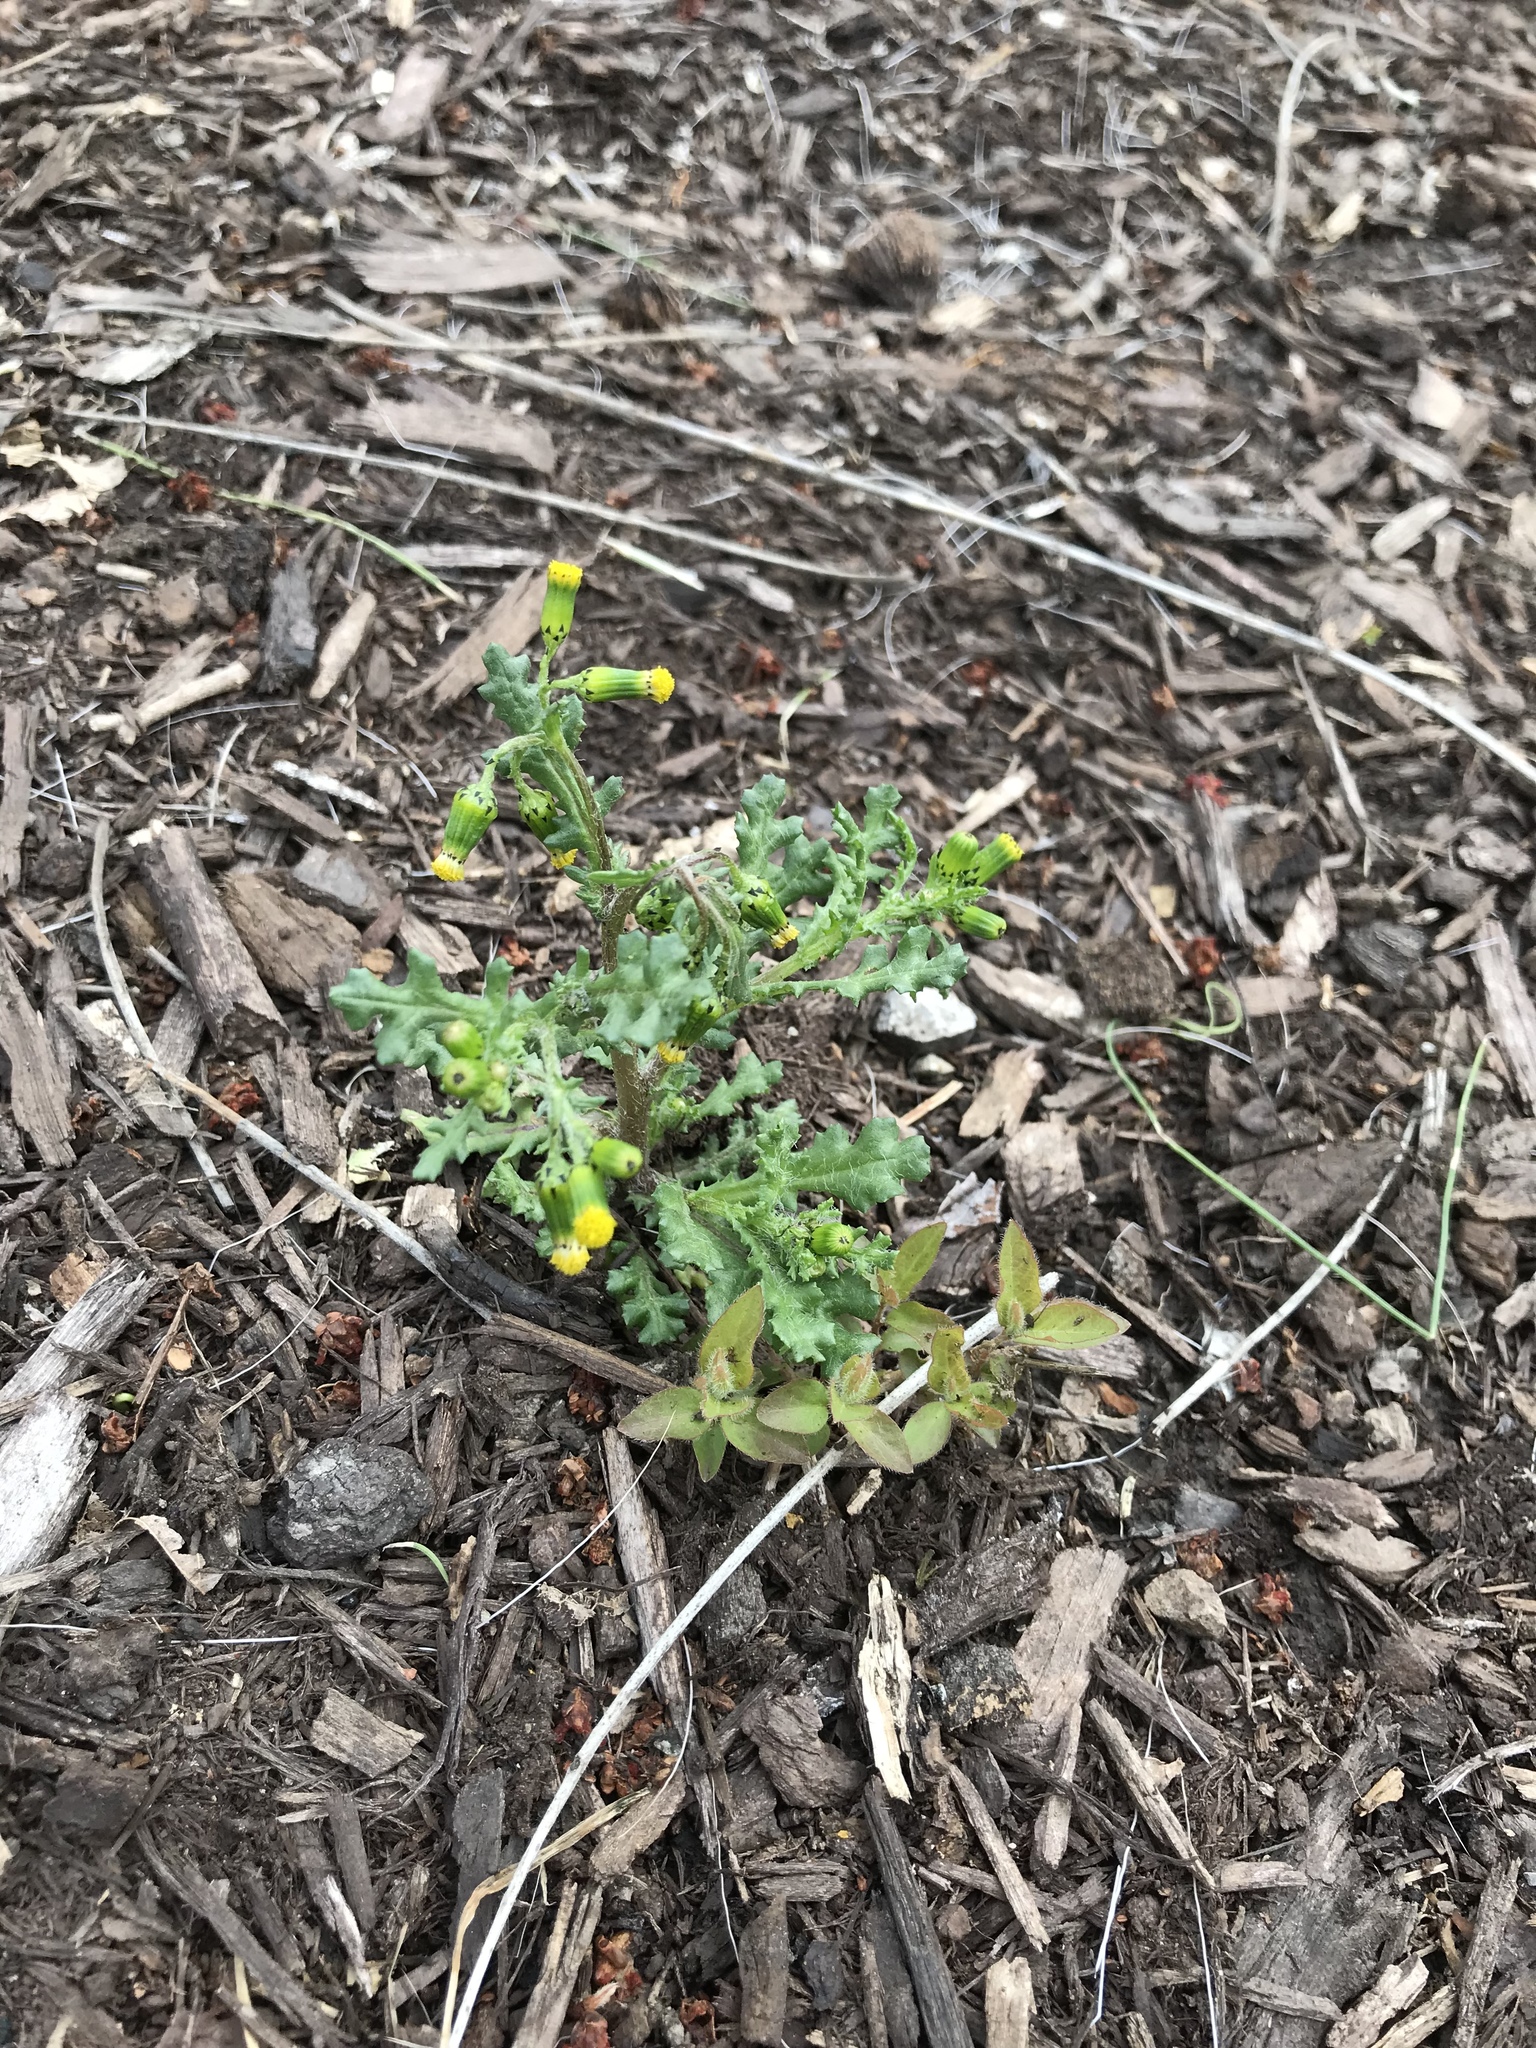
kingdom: Plantae
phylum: Tracheophyta
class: Magnoliopsida
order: Asterales
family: Asteraceae
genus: Senecio
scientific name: Senecio vulgaris
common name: Old-man-in-the-spring
